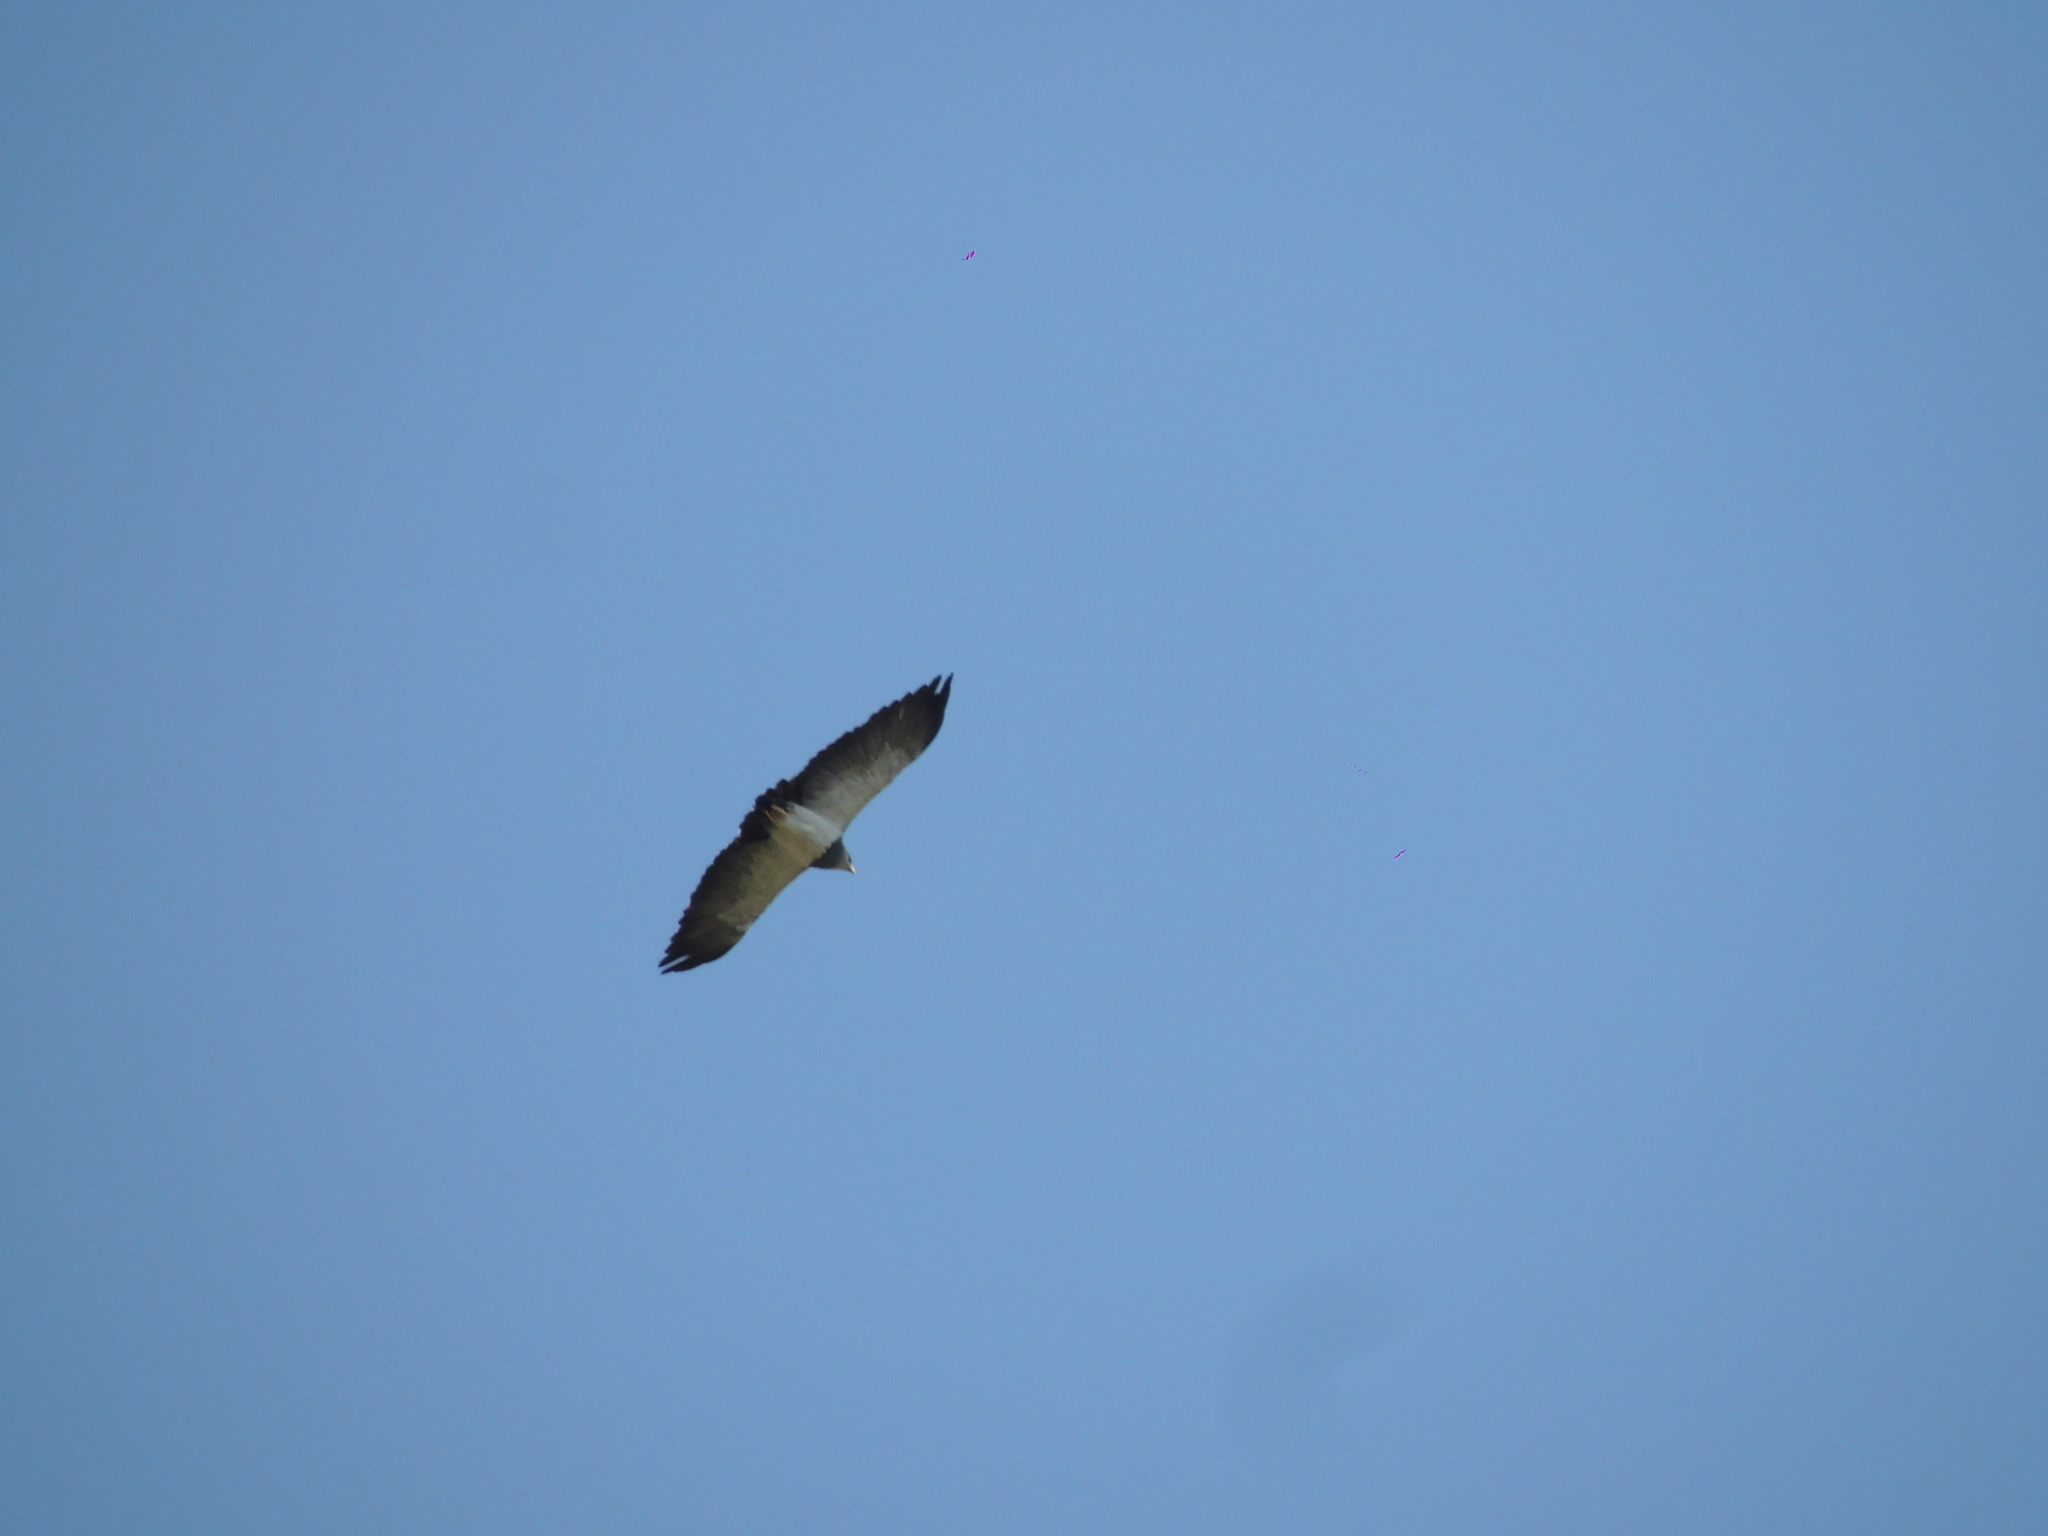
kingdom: Animalia
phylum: Chordata
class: Aves
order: Accipitriformes
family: Accipitridae
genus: Geranoaetus
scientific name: Geranoaetus melanoleucus
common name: Black-chested buzzard-eagle
